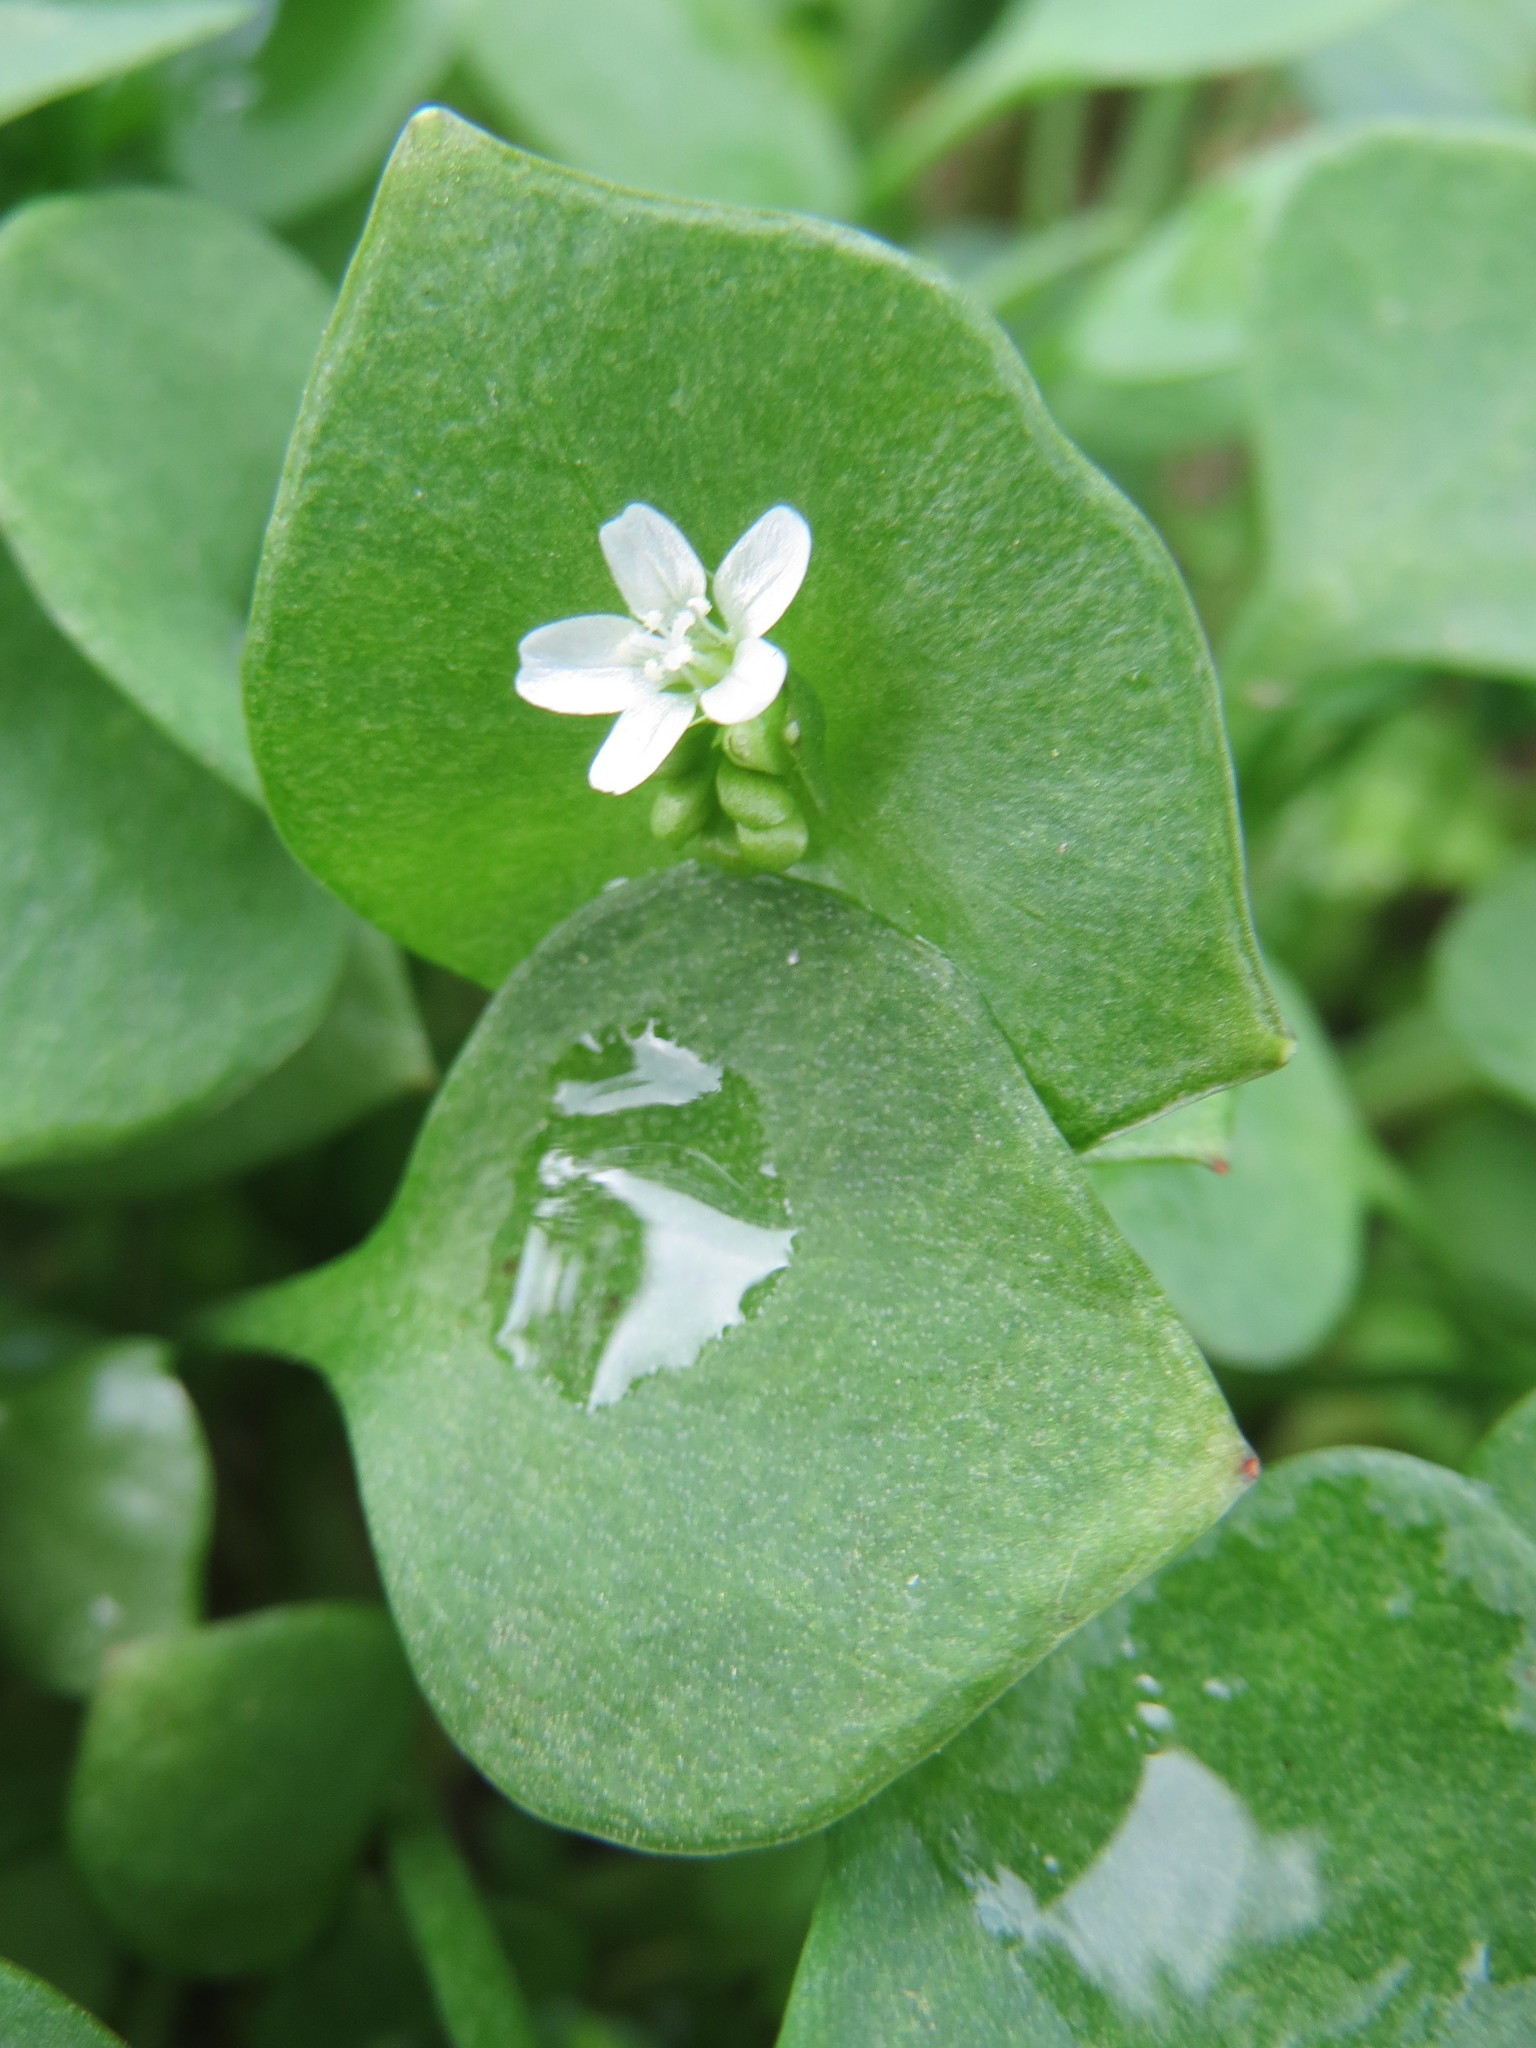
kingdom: Plantae
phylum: Tracheophyta
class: Magnoliopsida
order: Caryophyllales
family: Montiaceae
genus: Claytonia
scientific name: Claytonia perfoliata
